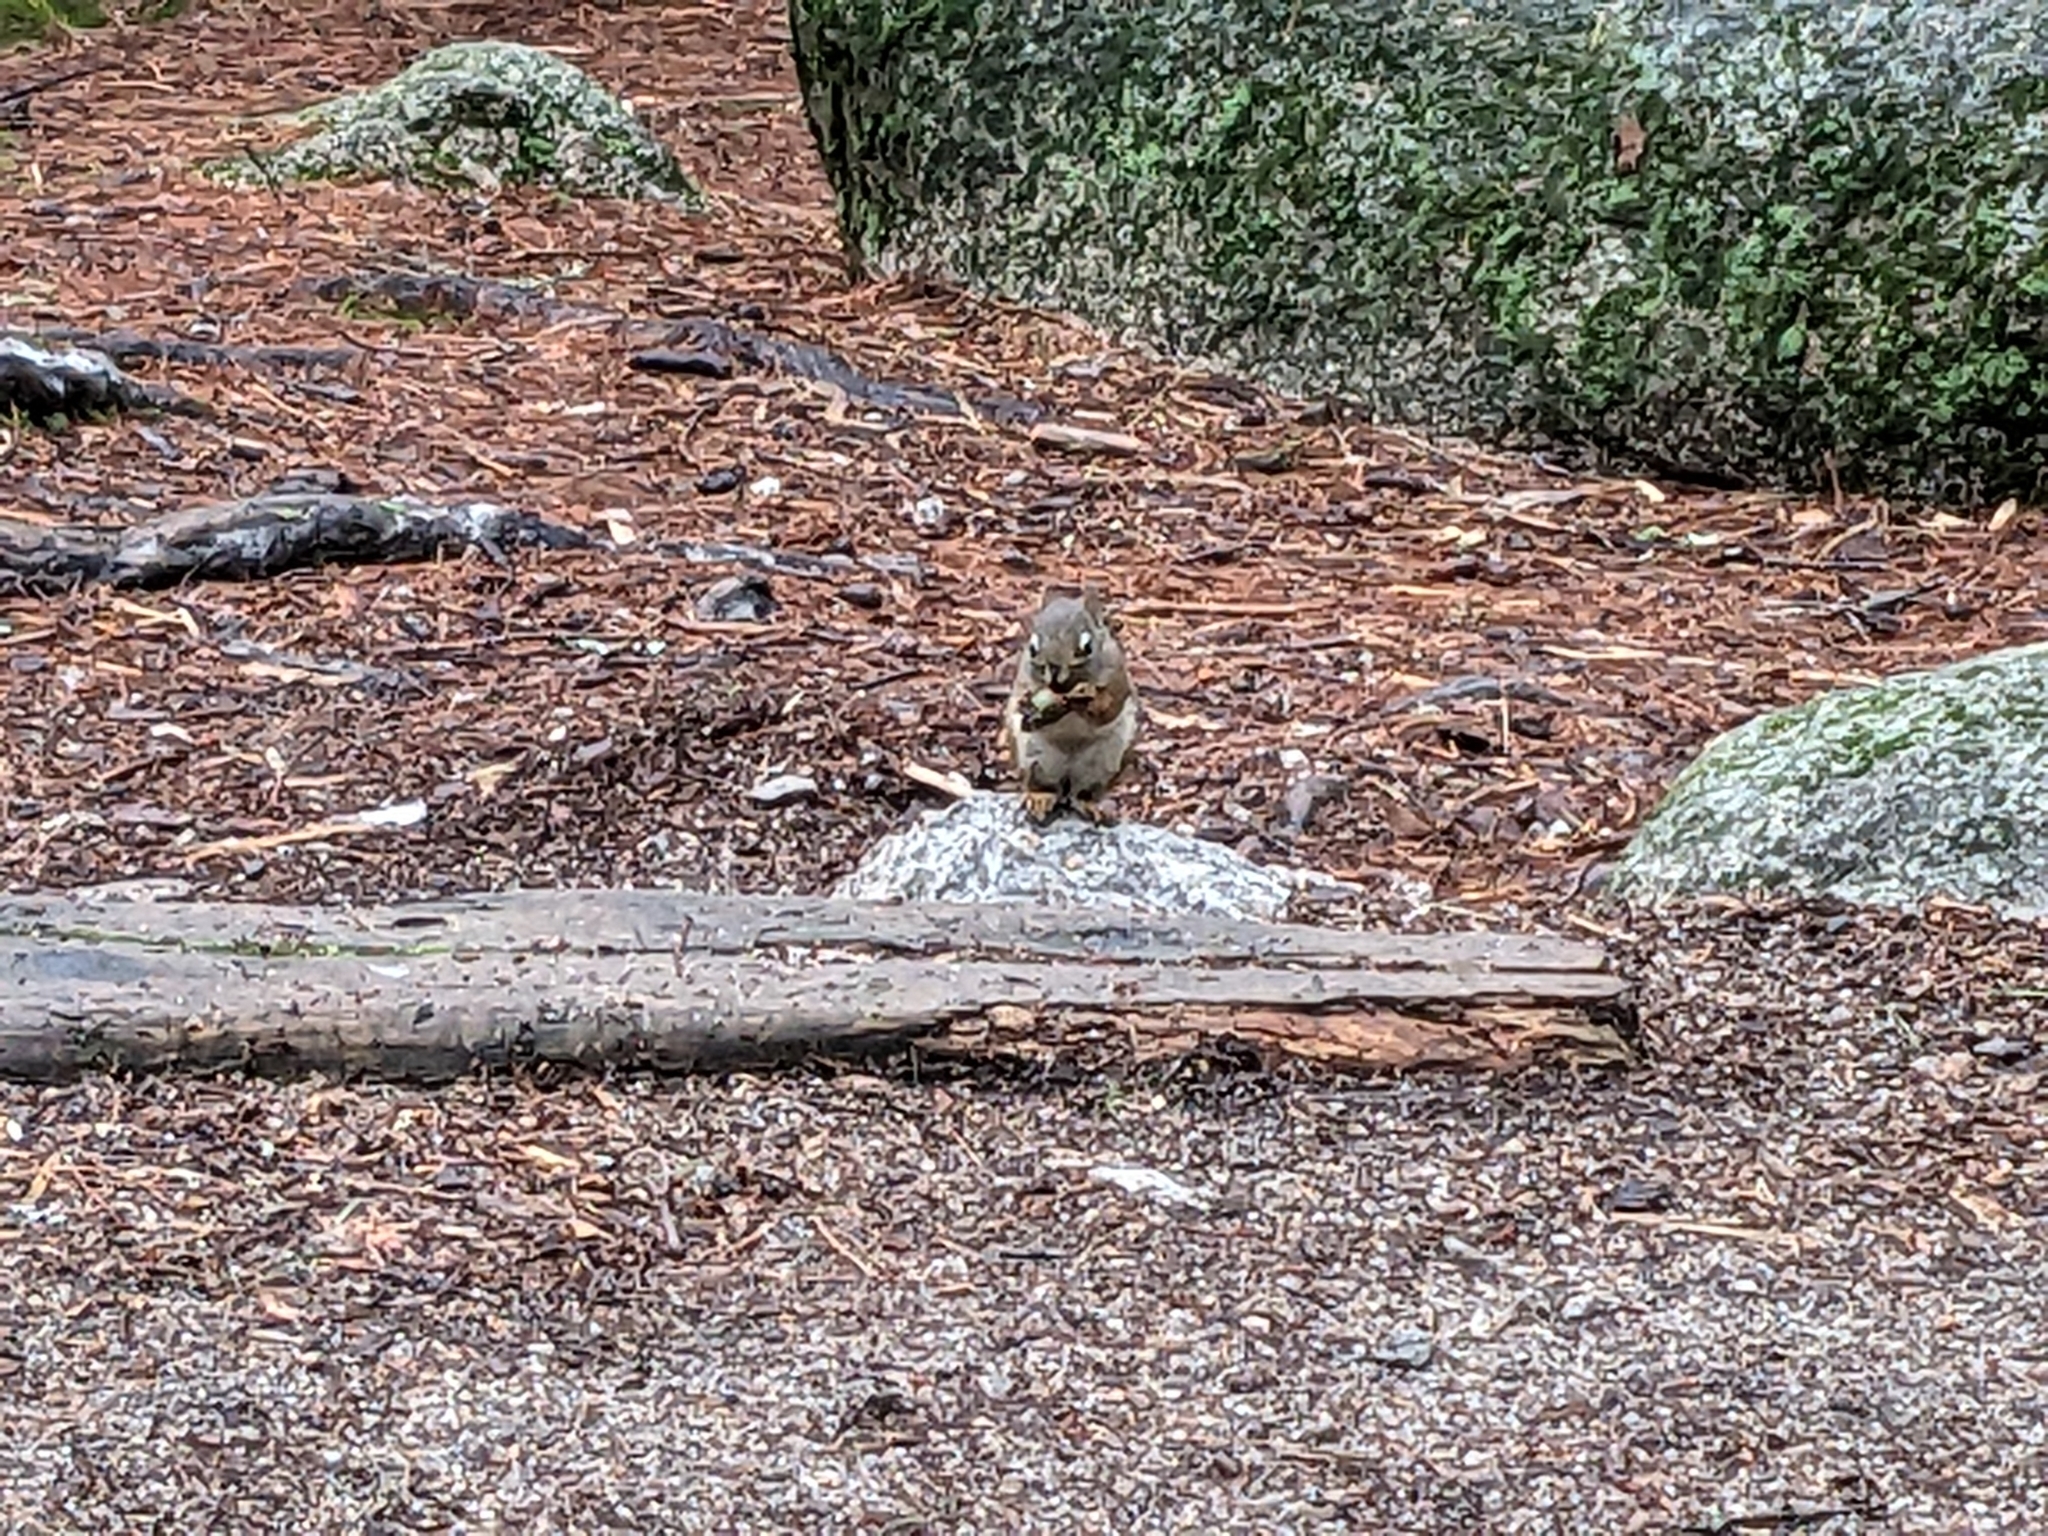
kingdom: Animalia
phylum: Chordata
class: Mammalia
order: Rodentia
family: Sciuridae
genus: Tamiasciurus
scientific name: Tamiasciurus hudsonicus
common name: Red squirrel
